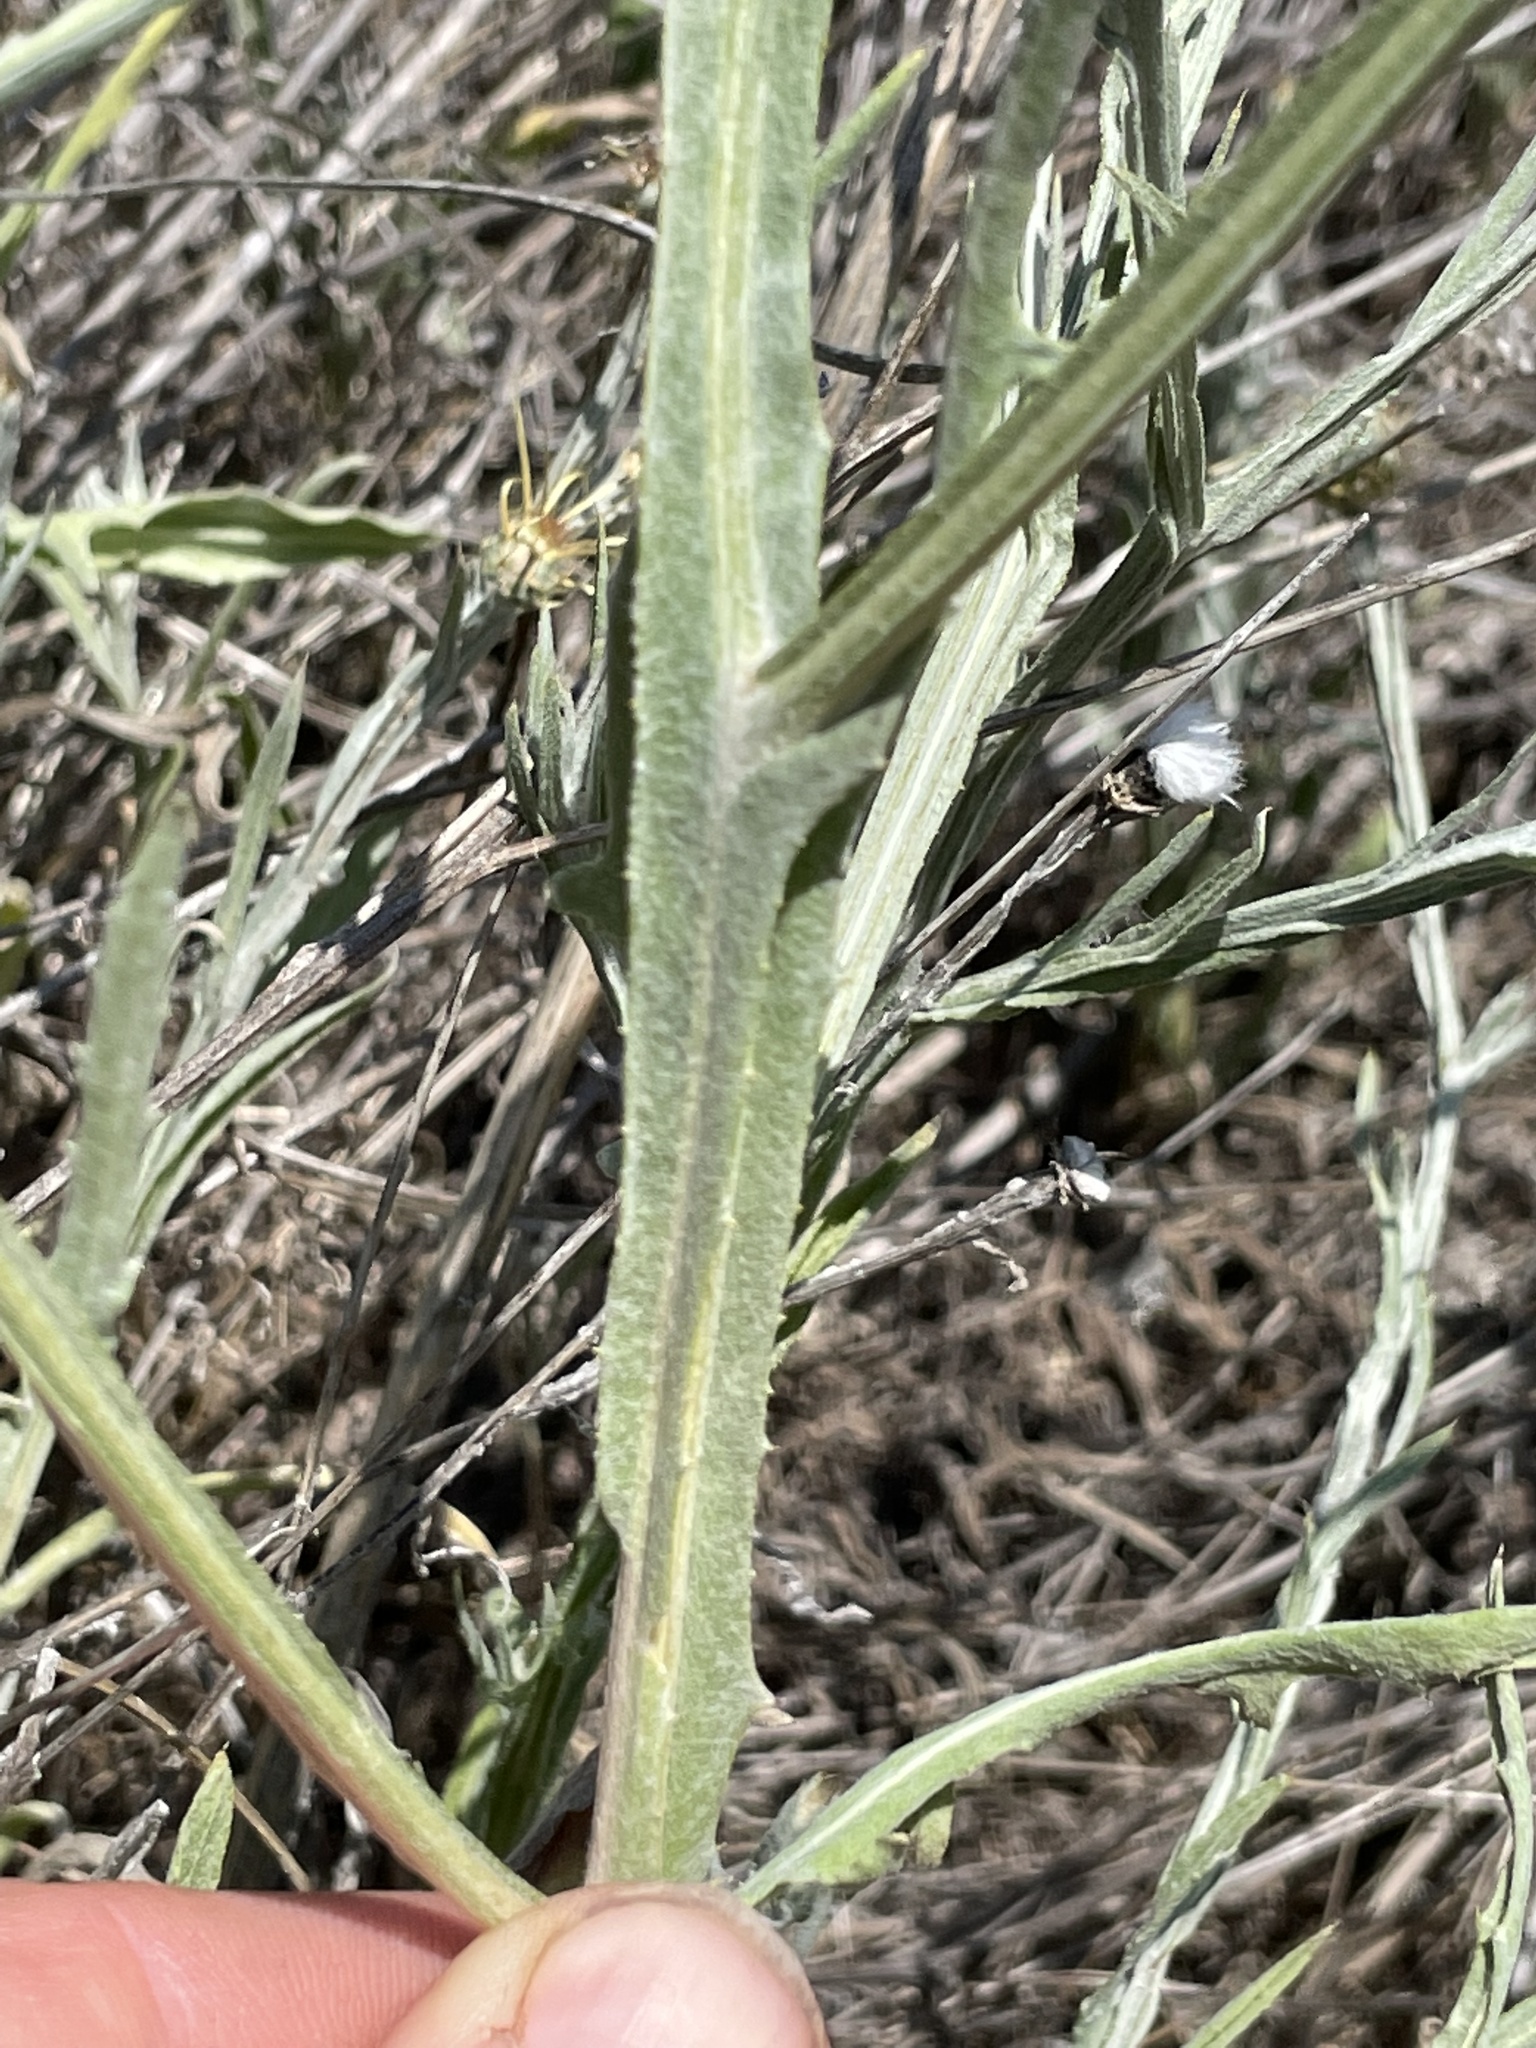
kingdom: Plantae
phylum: Tracheophyta
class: Magnoliopsida
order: Asterales
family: Asteraceae
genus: Centaurea
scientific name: Centaurea solstitialis
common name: Yellow star-thistle
